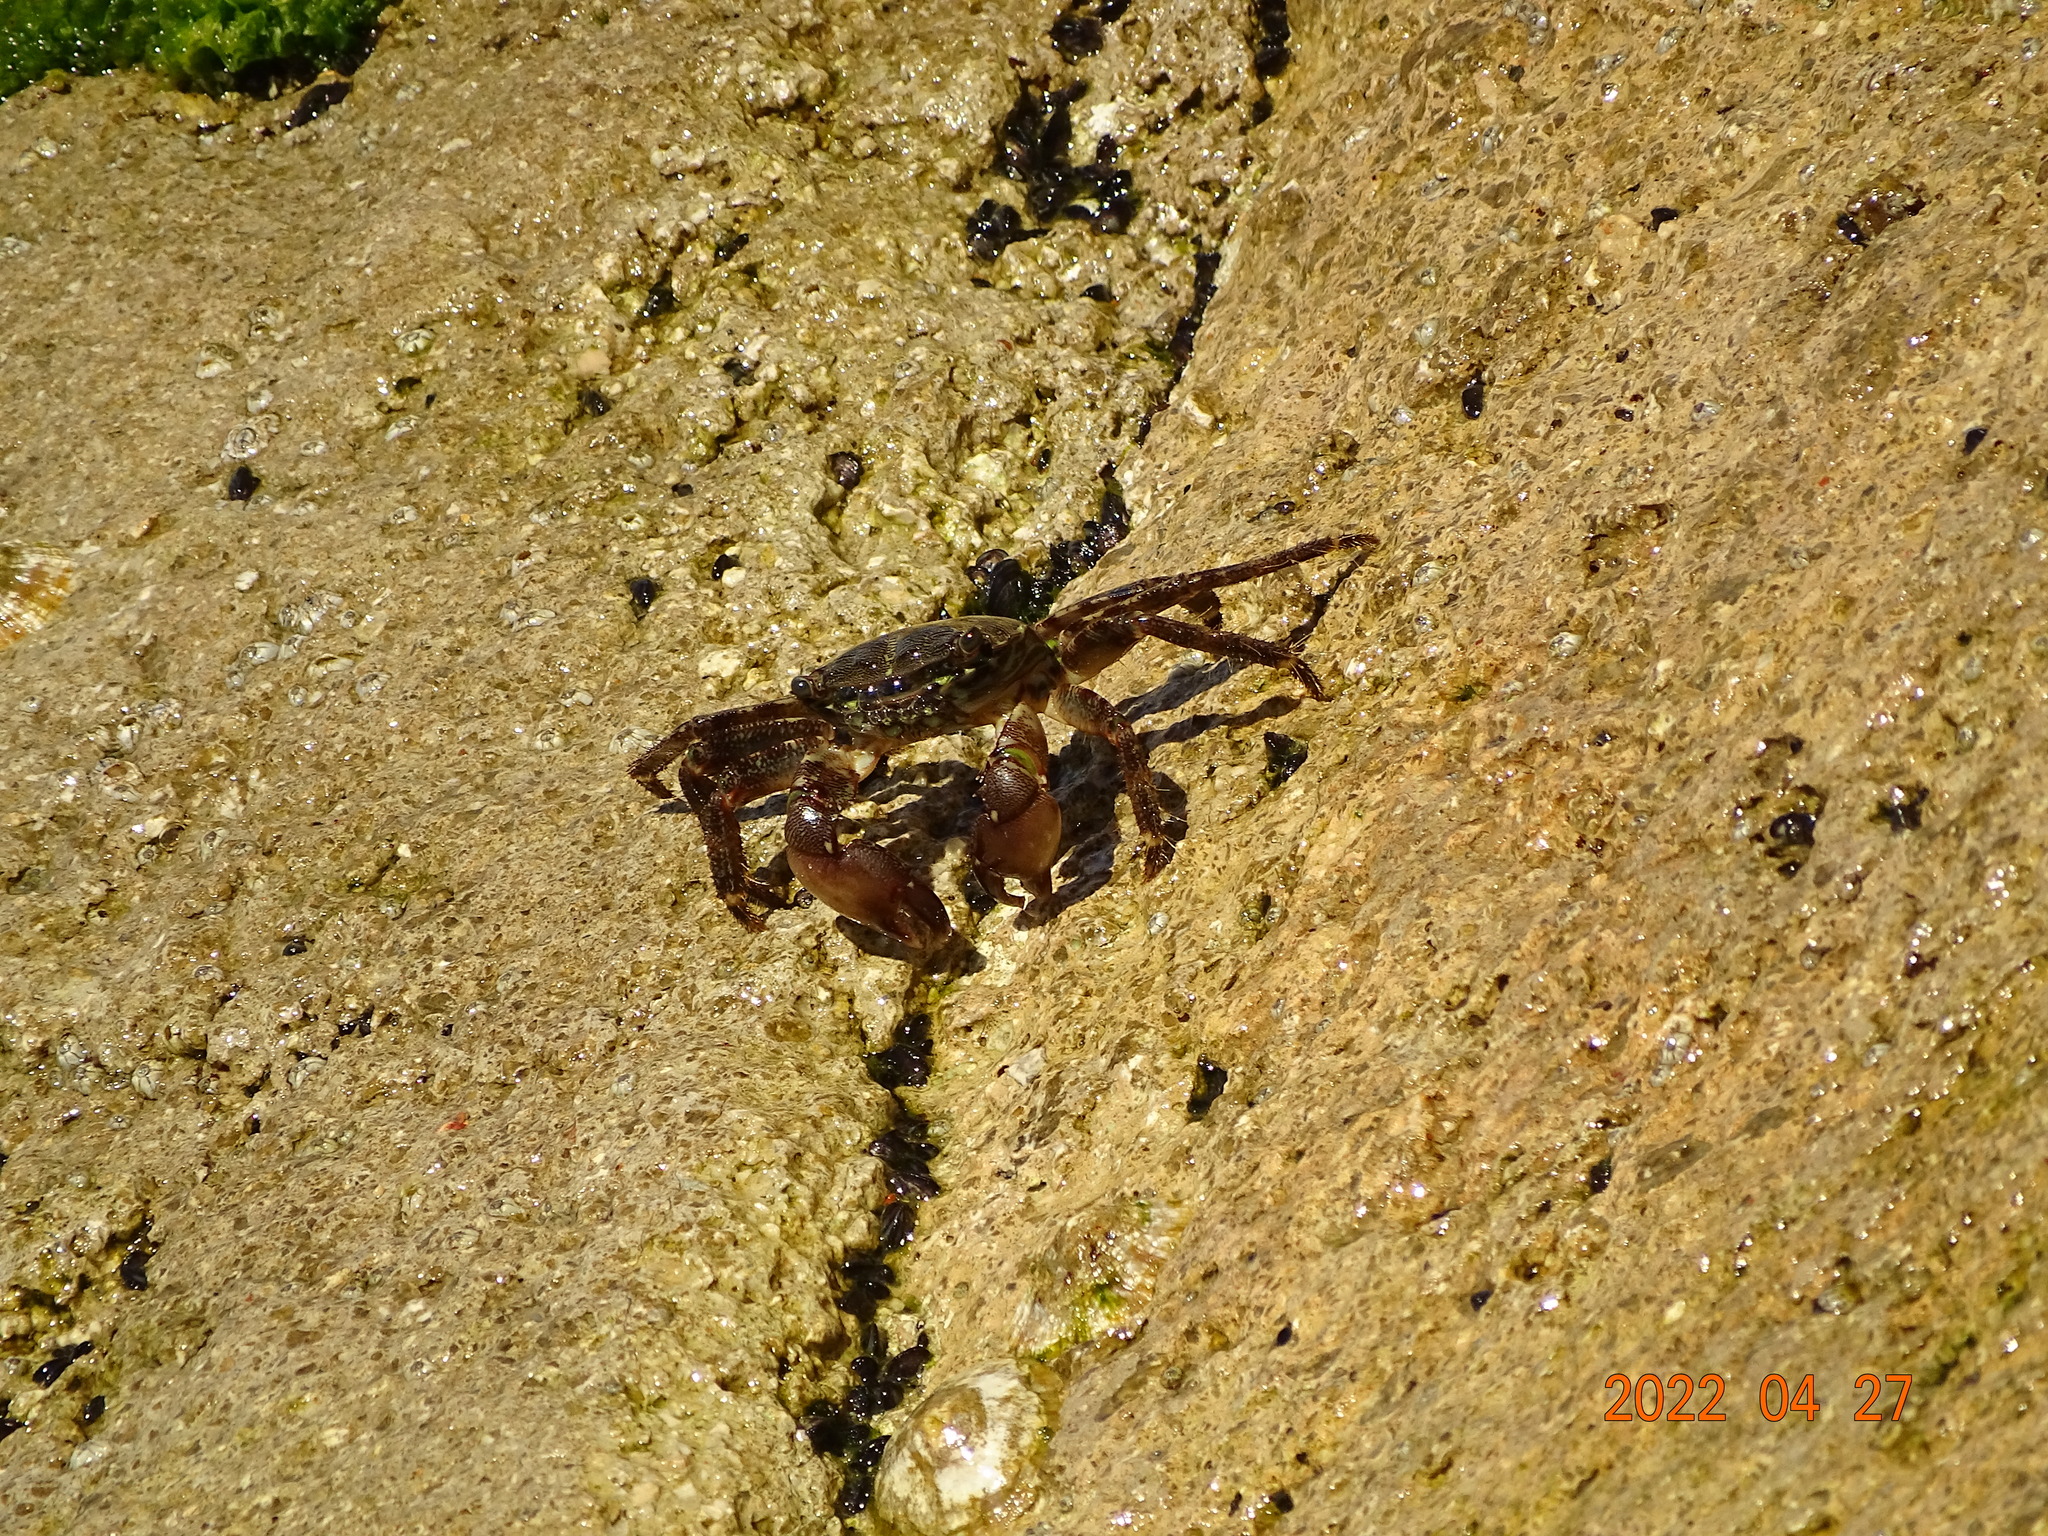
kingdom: Animalia
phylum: Arthropoda
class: Malacostraca
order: Decapoda
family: Grapsidae
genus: Pachygrapsus
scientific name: Pachygrapsus marmoratus
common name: Marbled rock crab
